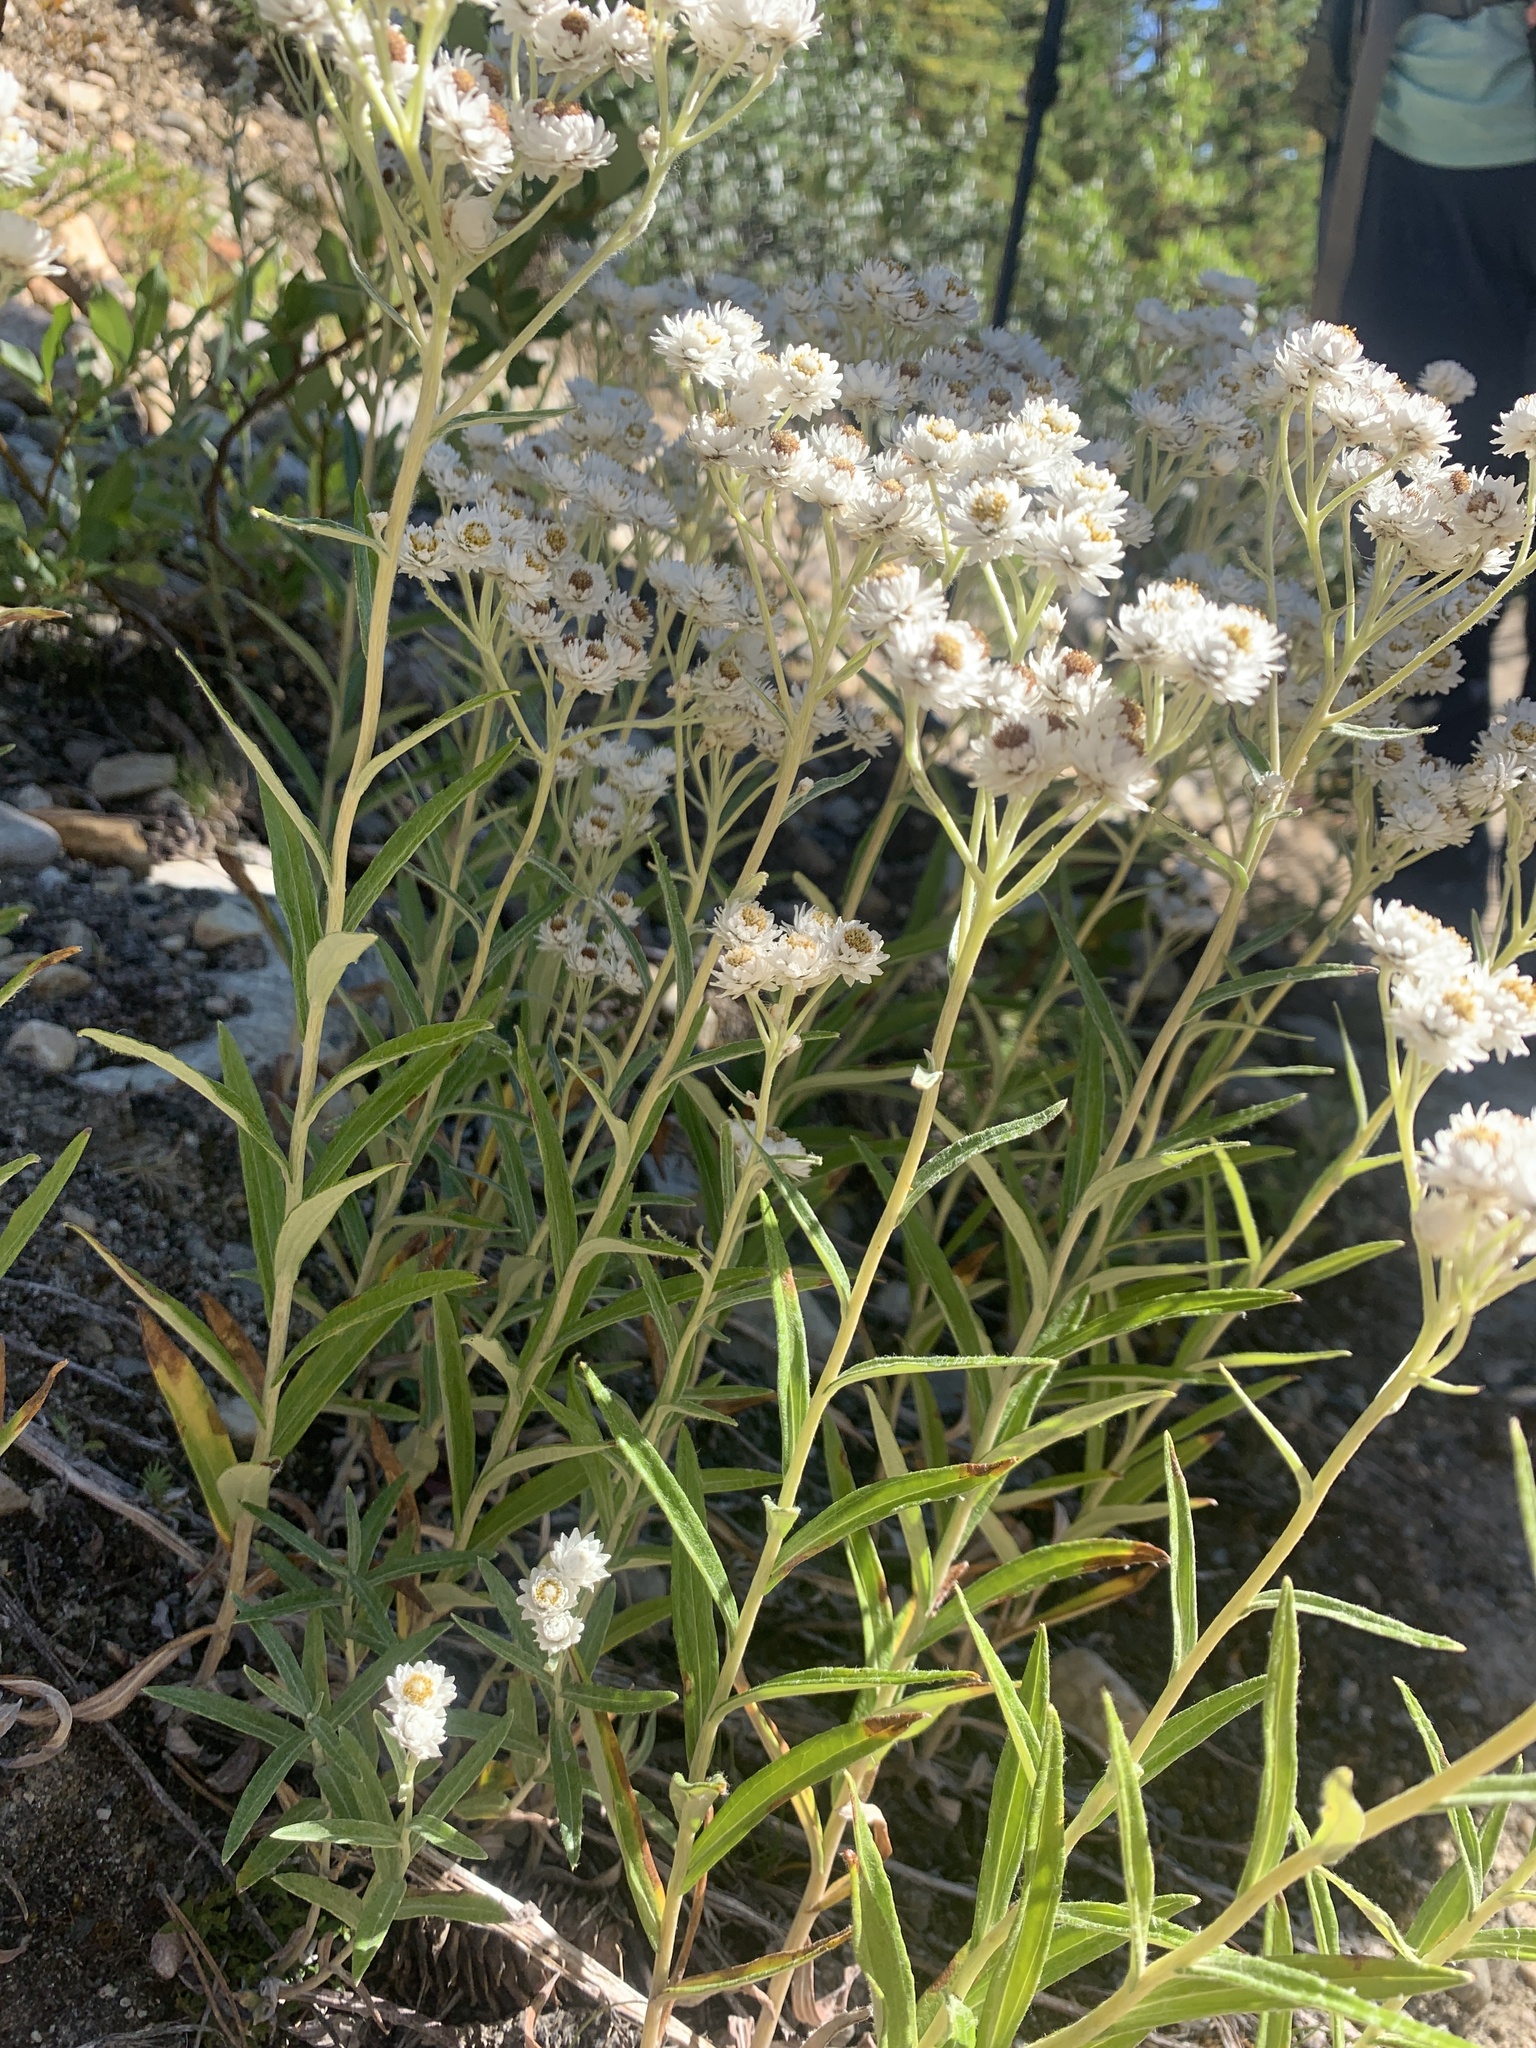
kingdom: Plantae
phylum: Tracheophyta
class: Magnoliopsida
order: Asterales
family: Asteraceae
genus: Anaphalis
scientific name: Anaphalis margaritacea
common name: Pearly everlasting
